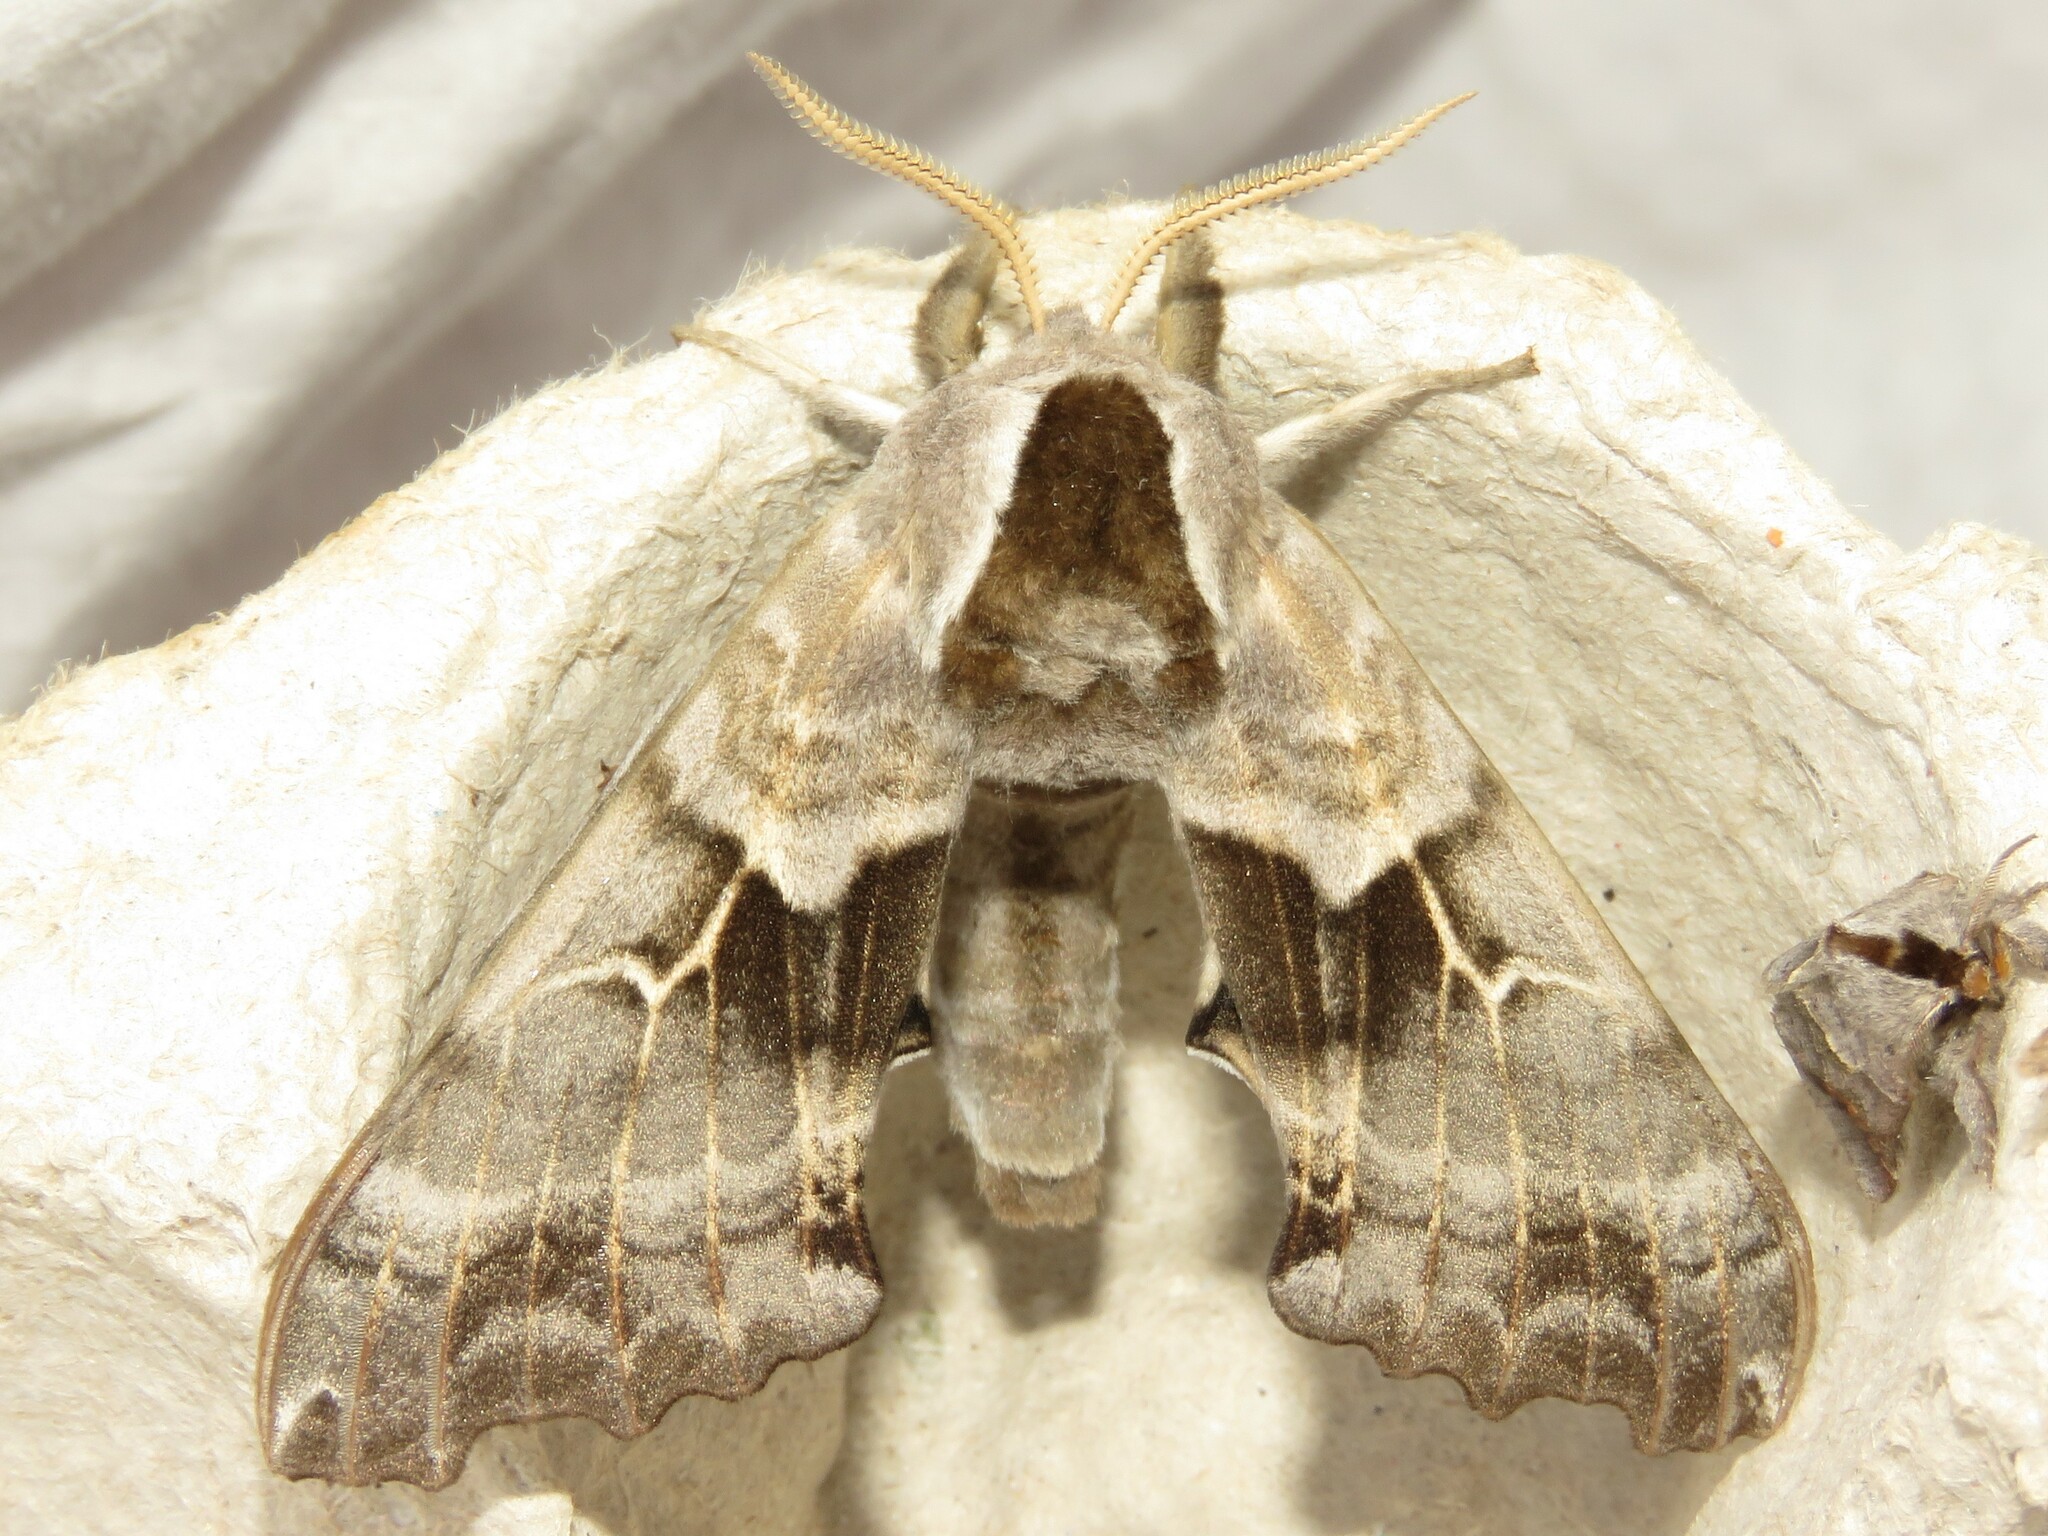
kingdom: Animalia
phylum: Arthropoda
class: Insecta
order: Lepidoptera
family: Sphingidae
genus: Smerinthus
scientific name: Smerinthus cerisyi
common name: Cerisy's sphinx moth
